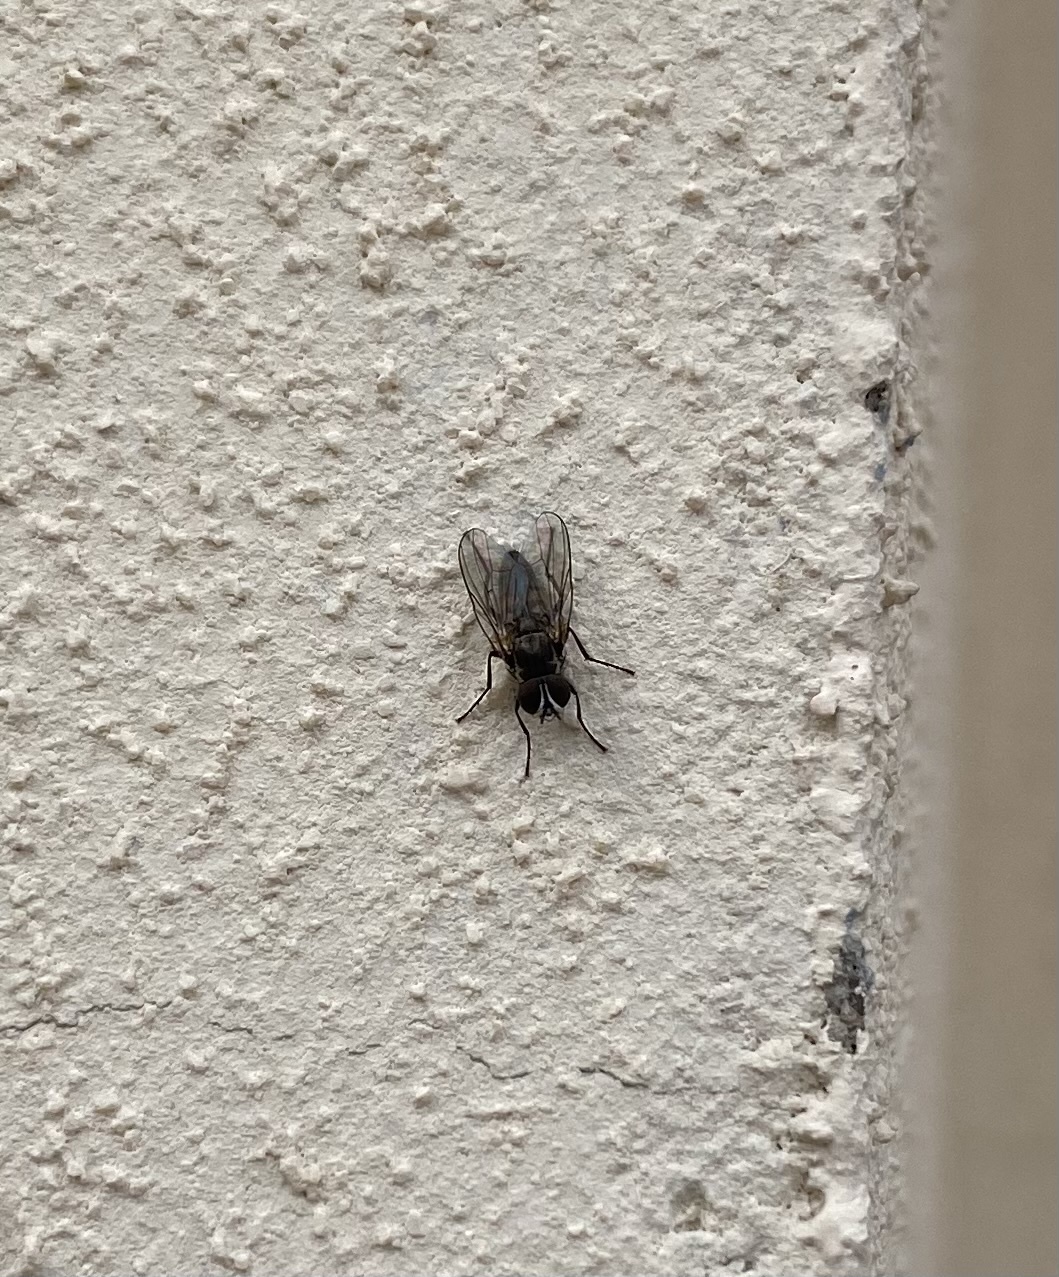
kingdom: Animalia
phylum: Arthropoda
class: Insecta
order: Diptera
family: Fanniidae
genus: Fannia
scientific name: Fannia
